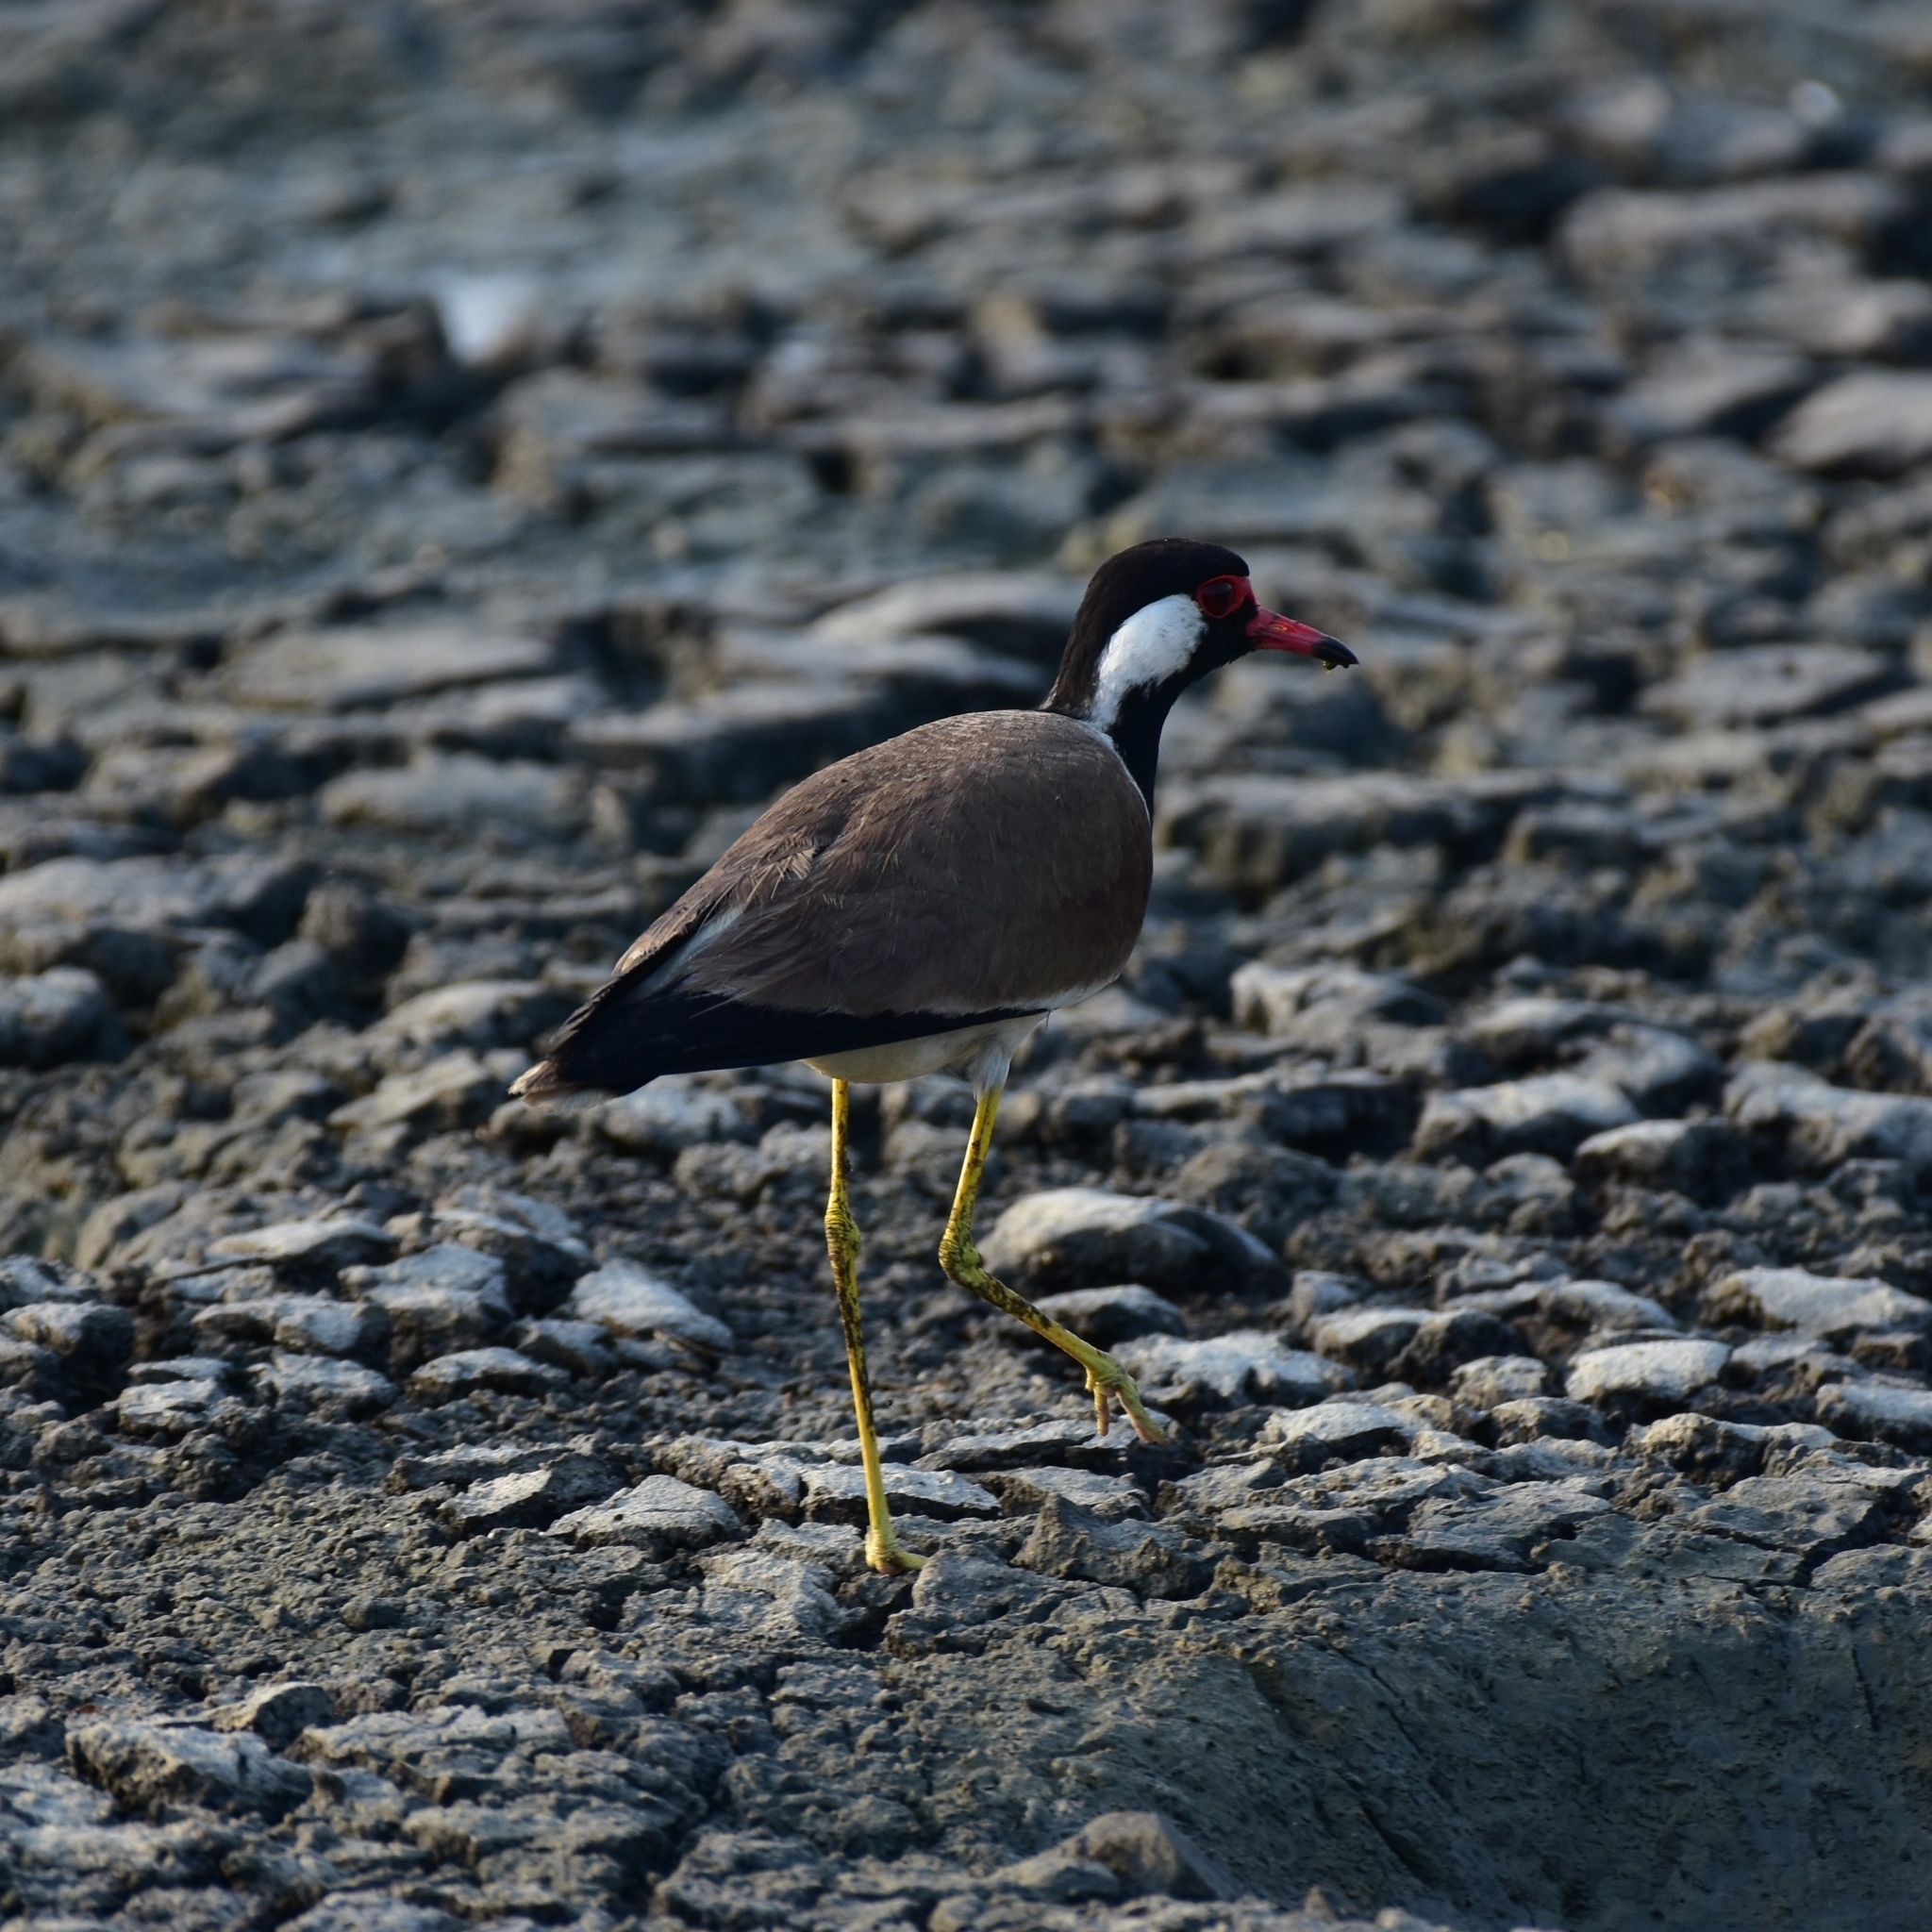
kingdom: Animalia
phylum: Chordata
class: Aves
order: Charadriiformes
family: Charadriidae
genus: Vanellus
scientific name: Vanellus indicus
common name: Red-wattled lapwing
